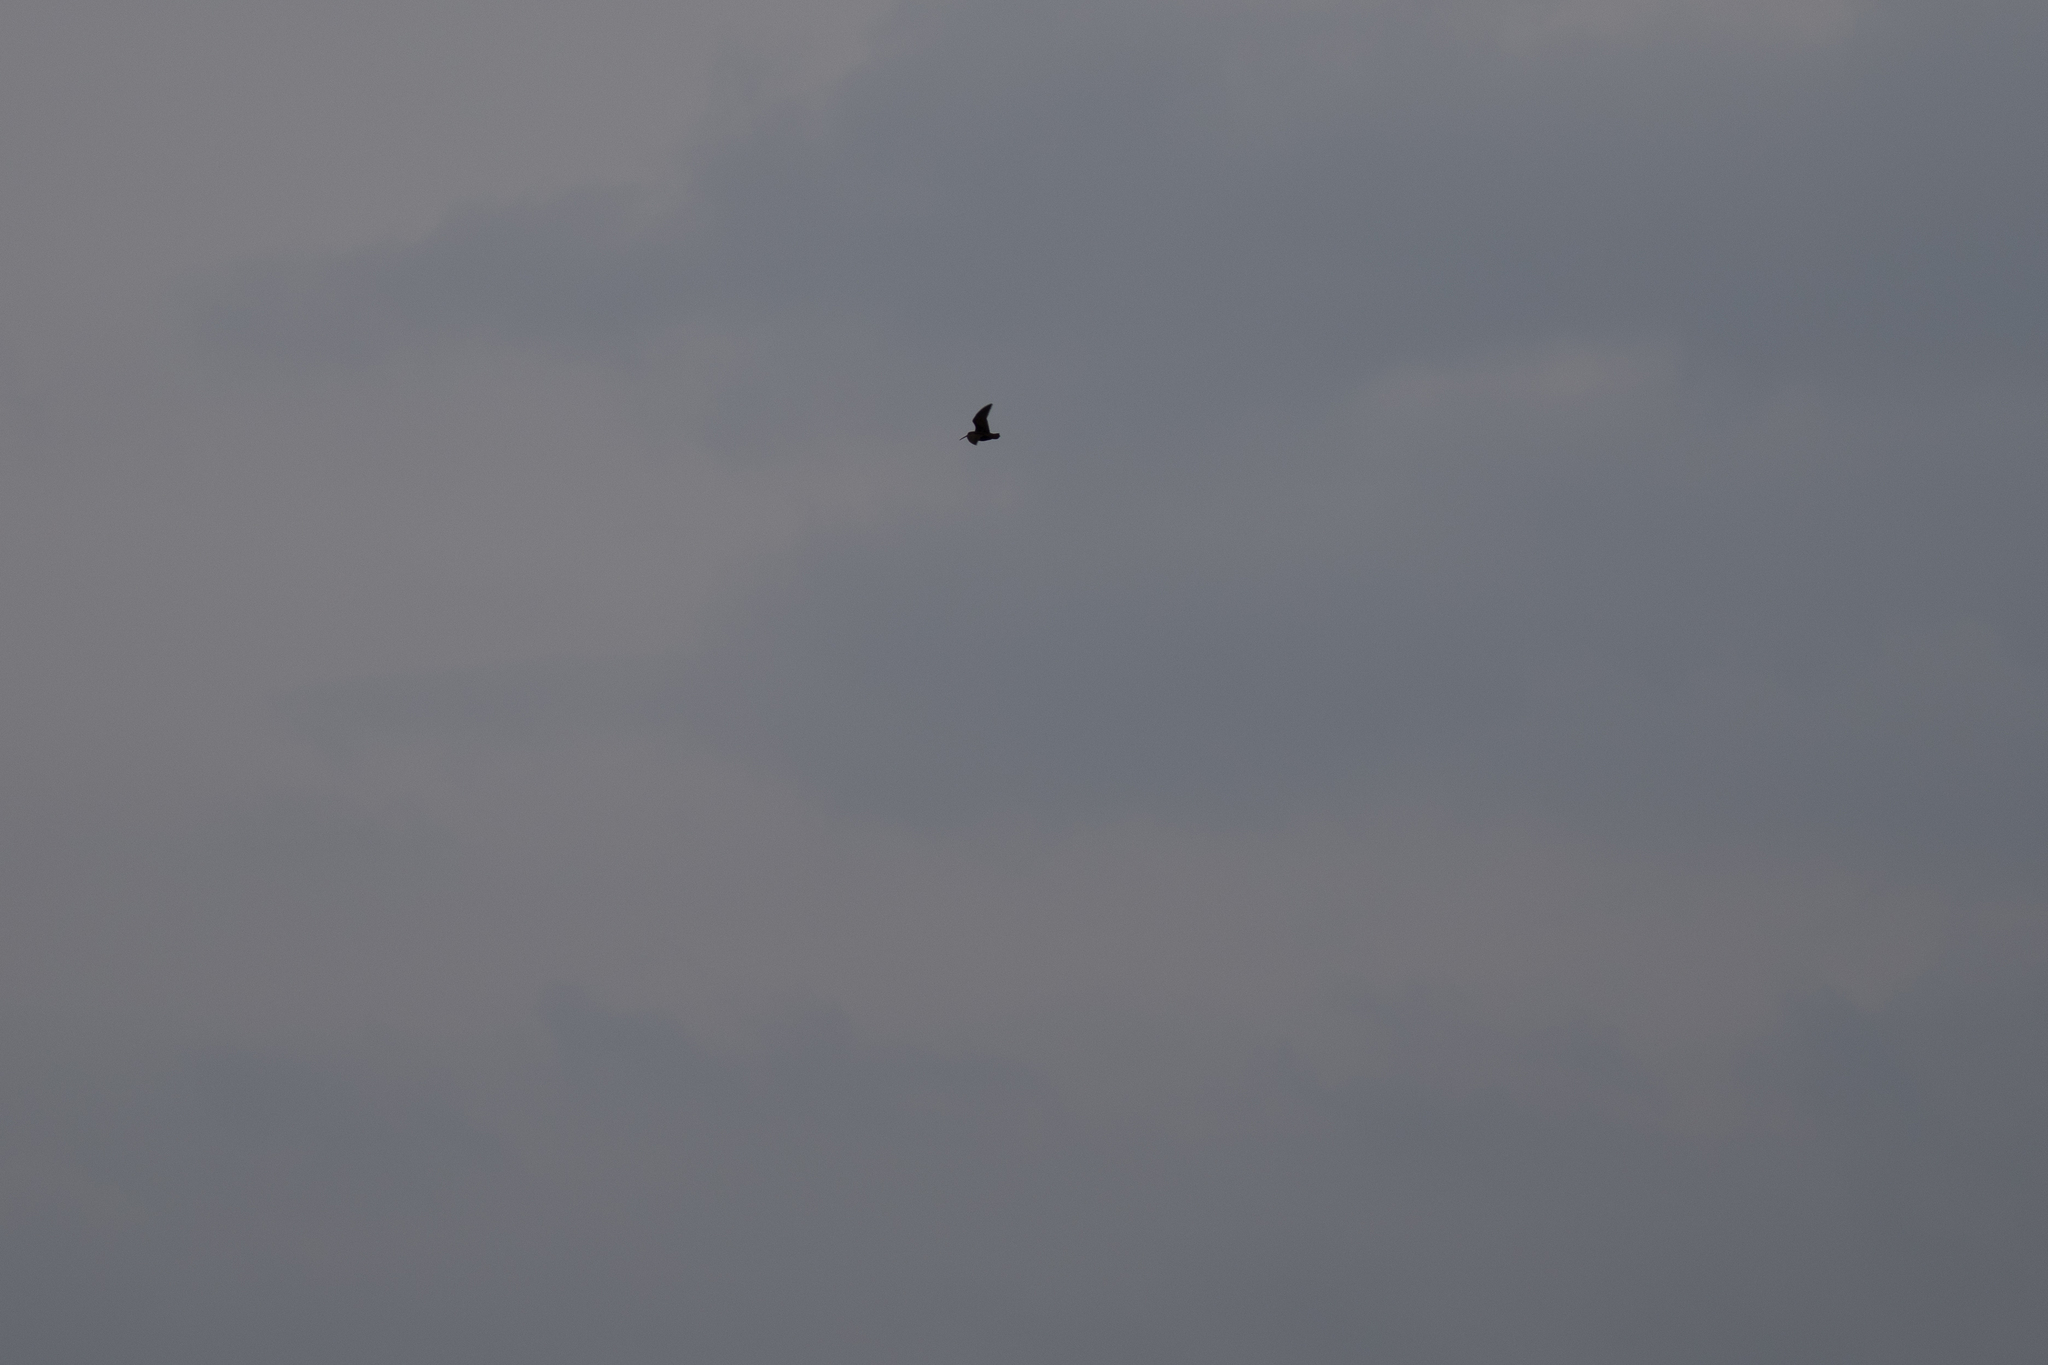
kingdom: Animalia
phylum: Chordata
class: Aves
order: Charadriiformes
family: Scolopacidae
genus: Scolopax
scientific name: Scolopax rusticola
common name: Eurasian woodcock
